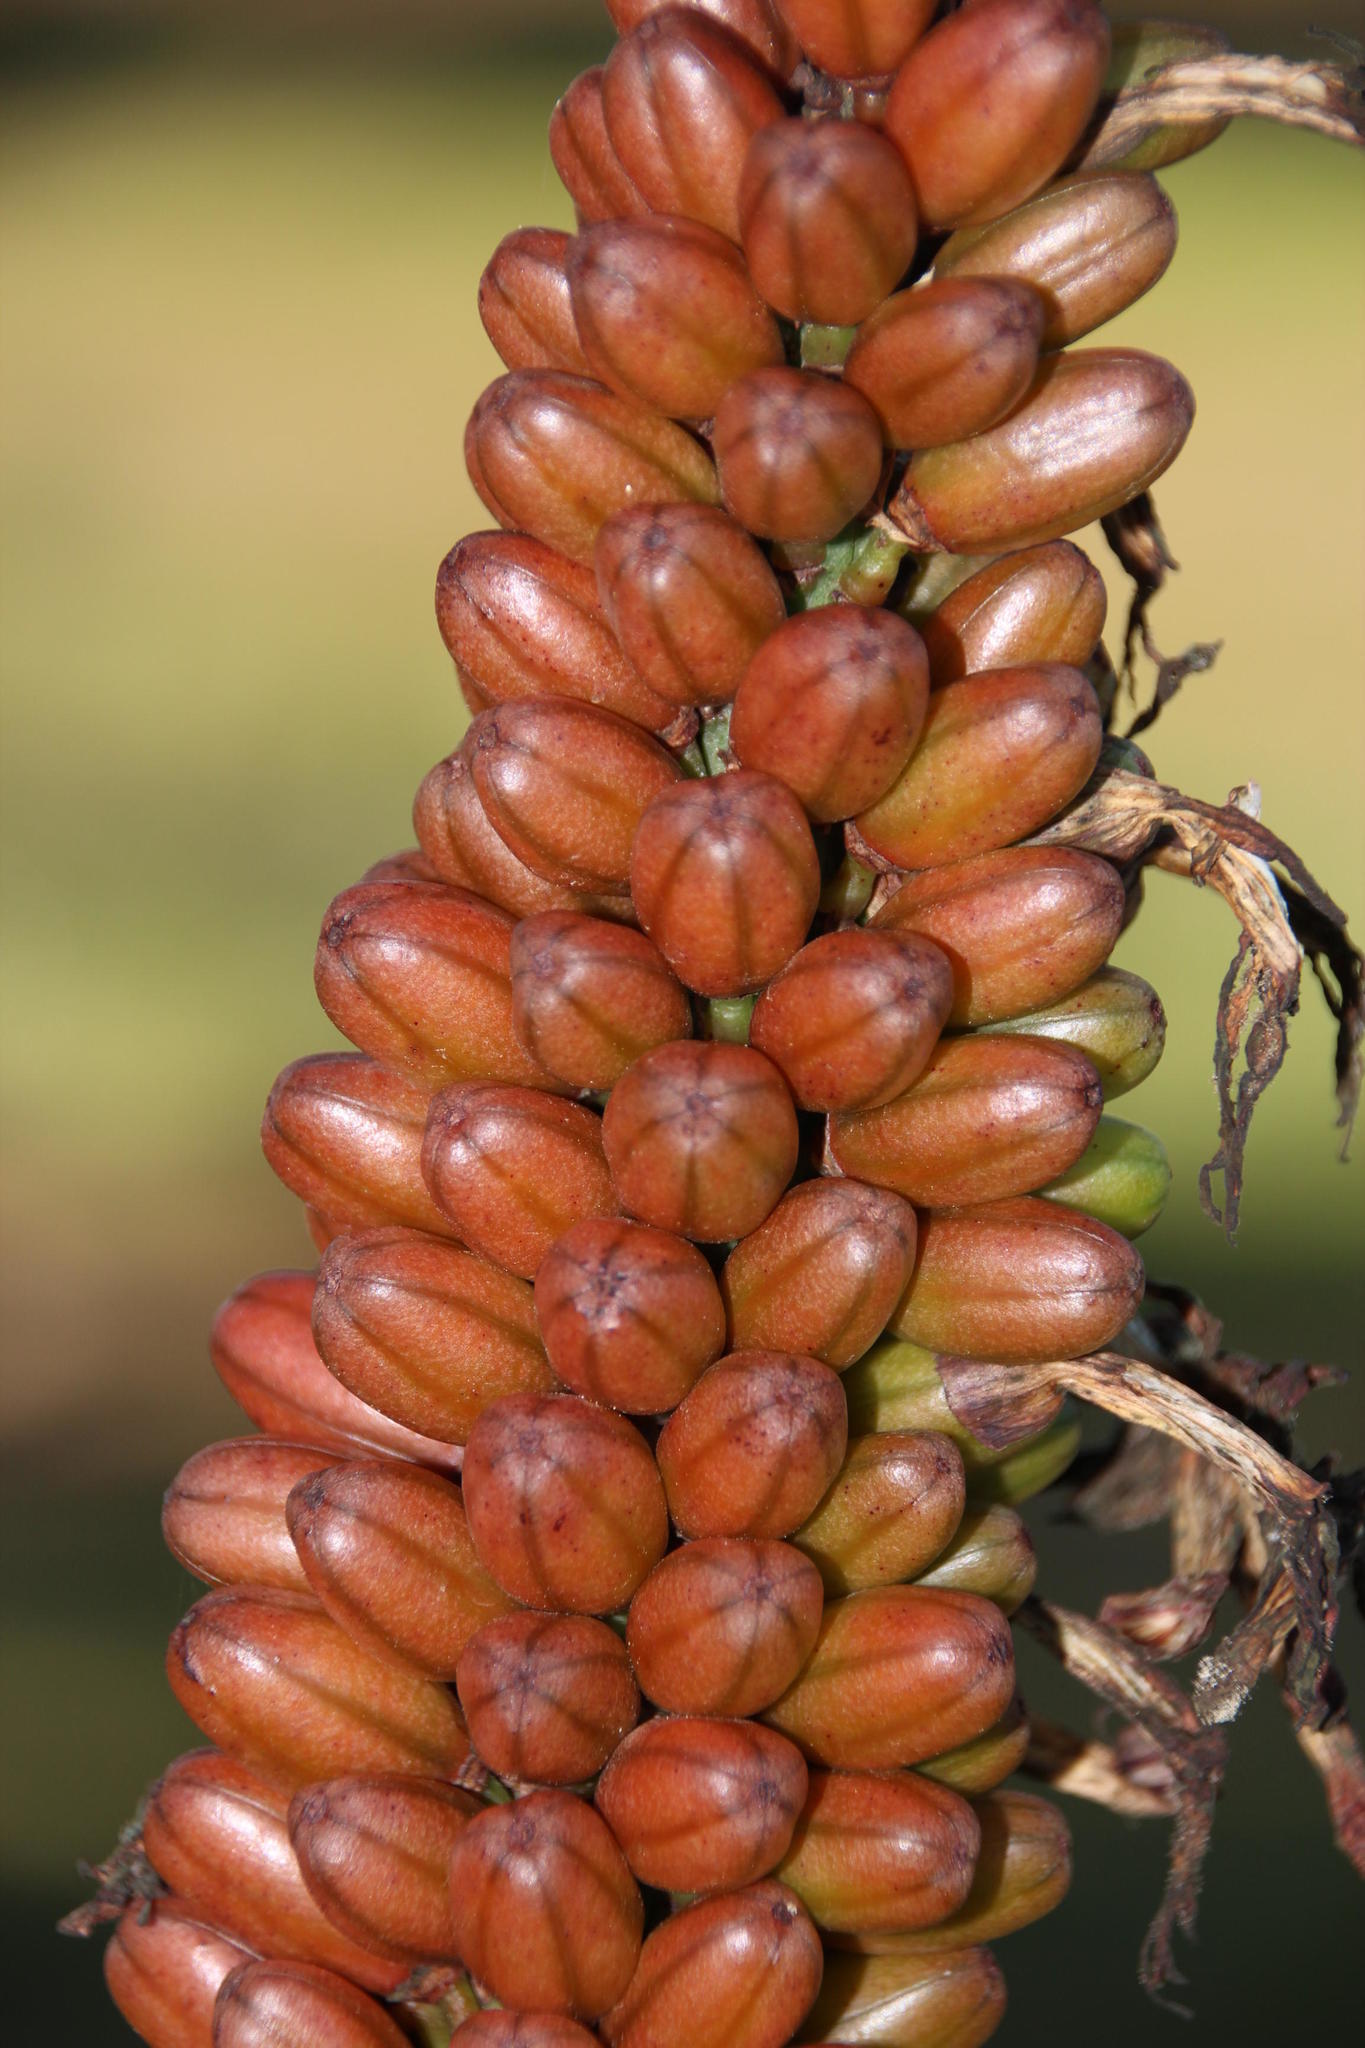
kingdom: Plantae
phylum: Tracheophyta
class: Liliopsida
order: Asparagales
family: Asphodelaceae
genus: Aloe
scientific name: Aloe ferox
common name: Bitter aloe
